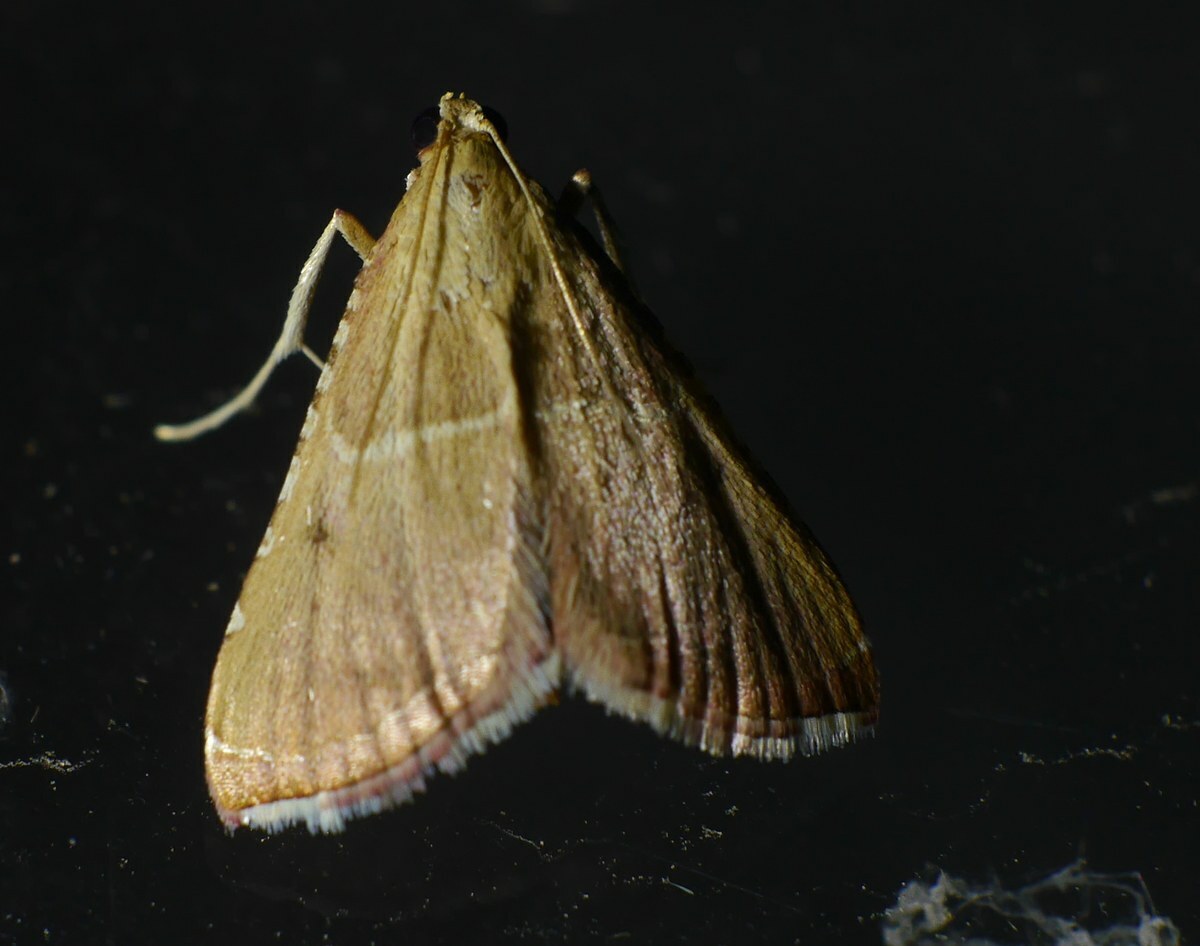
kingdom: Animalia
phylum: Arthropoda
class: Insecta
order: Lepidoptera
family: Pyralidae
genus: Endotricha
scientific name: Endotricha flammealis
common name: Rosy tabby
